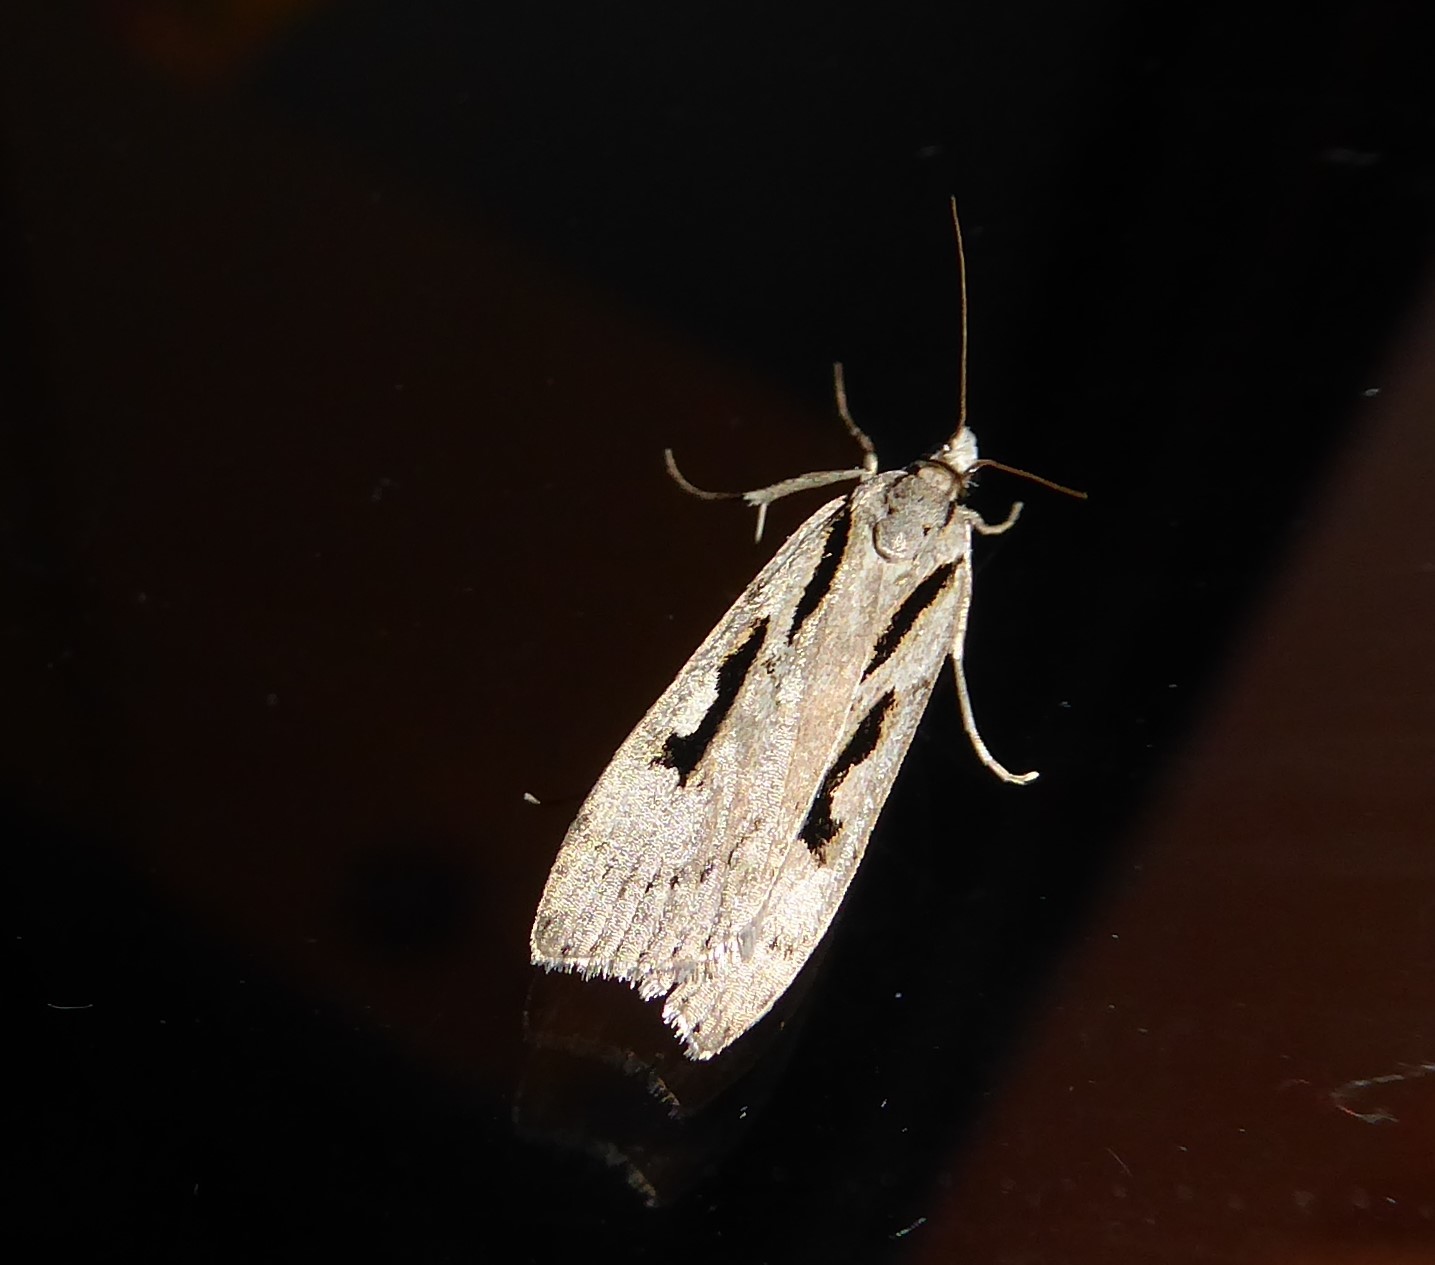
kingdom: Animalia
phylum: Arthropoda
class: Insecta
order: Lepidoptera
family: Crambidae
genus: Scoparia
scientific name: Scoparia rotuellus
